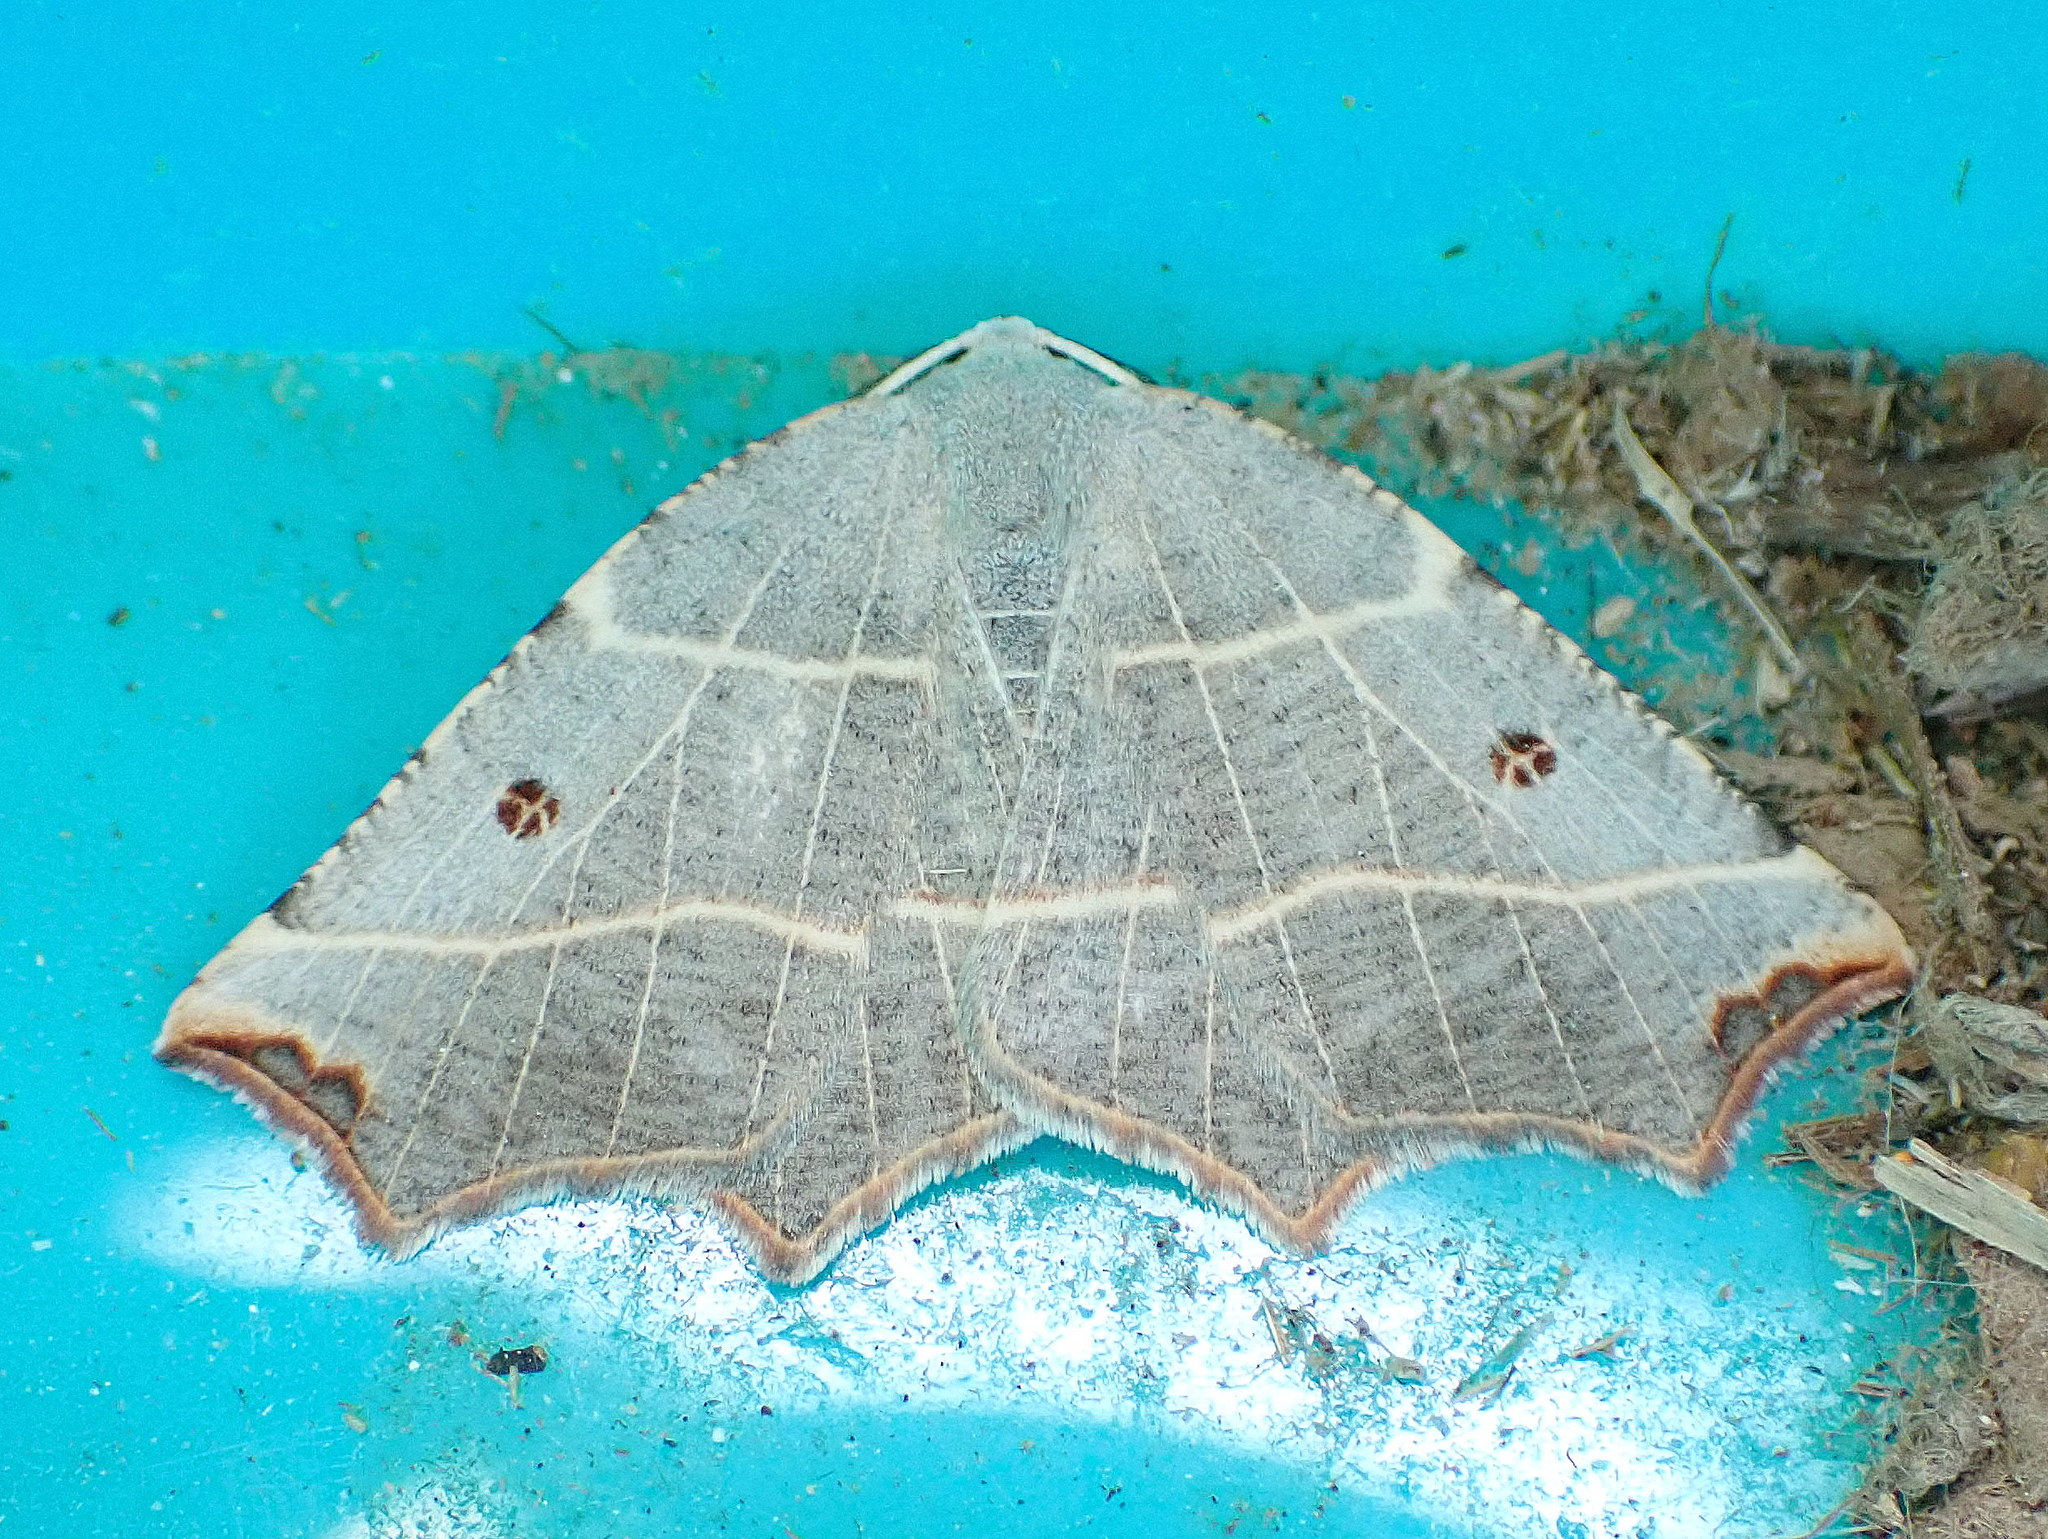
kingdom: Animalia
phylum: Arthropoda
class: Insecta
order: Lepidoptera
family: Geometridae
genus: Metanema
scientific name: Metanema inatomaria
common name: Pale metanema
